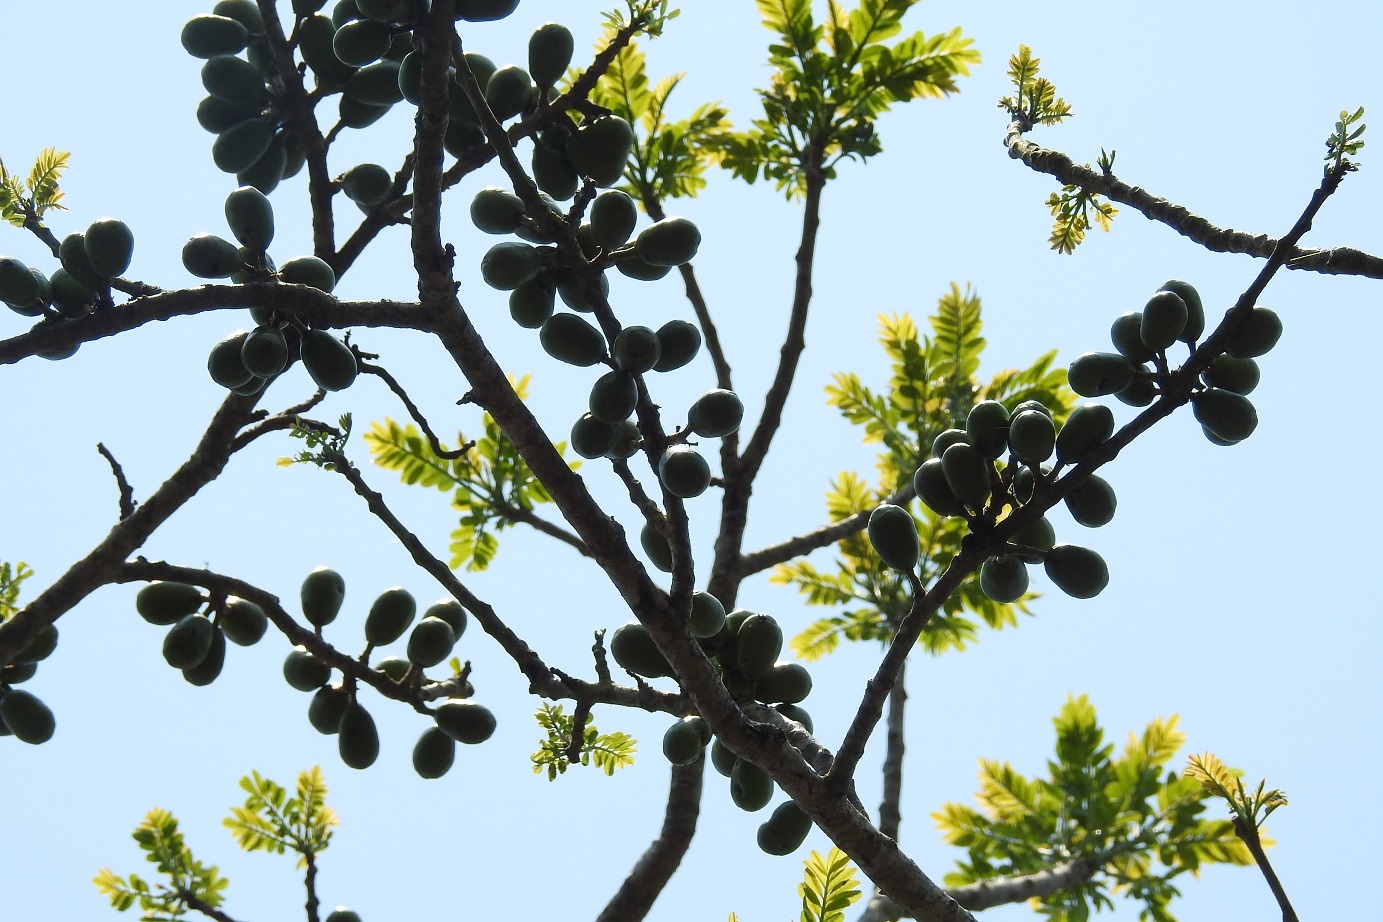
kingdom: Plantae
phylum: Tracheophyta
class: Magnoliopsida
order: Sapindales
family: Anacardiaceae
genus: Spondias
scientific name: Spondias purpurea
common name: Purple mombin
